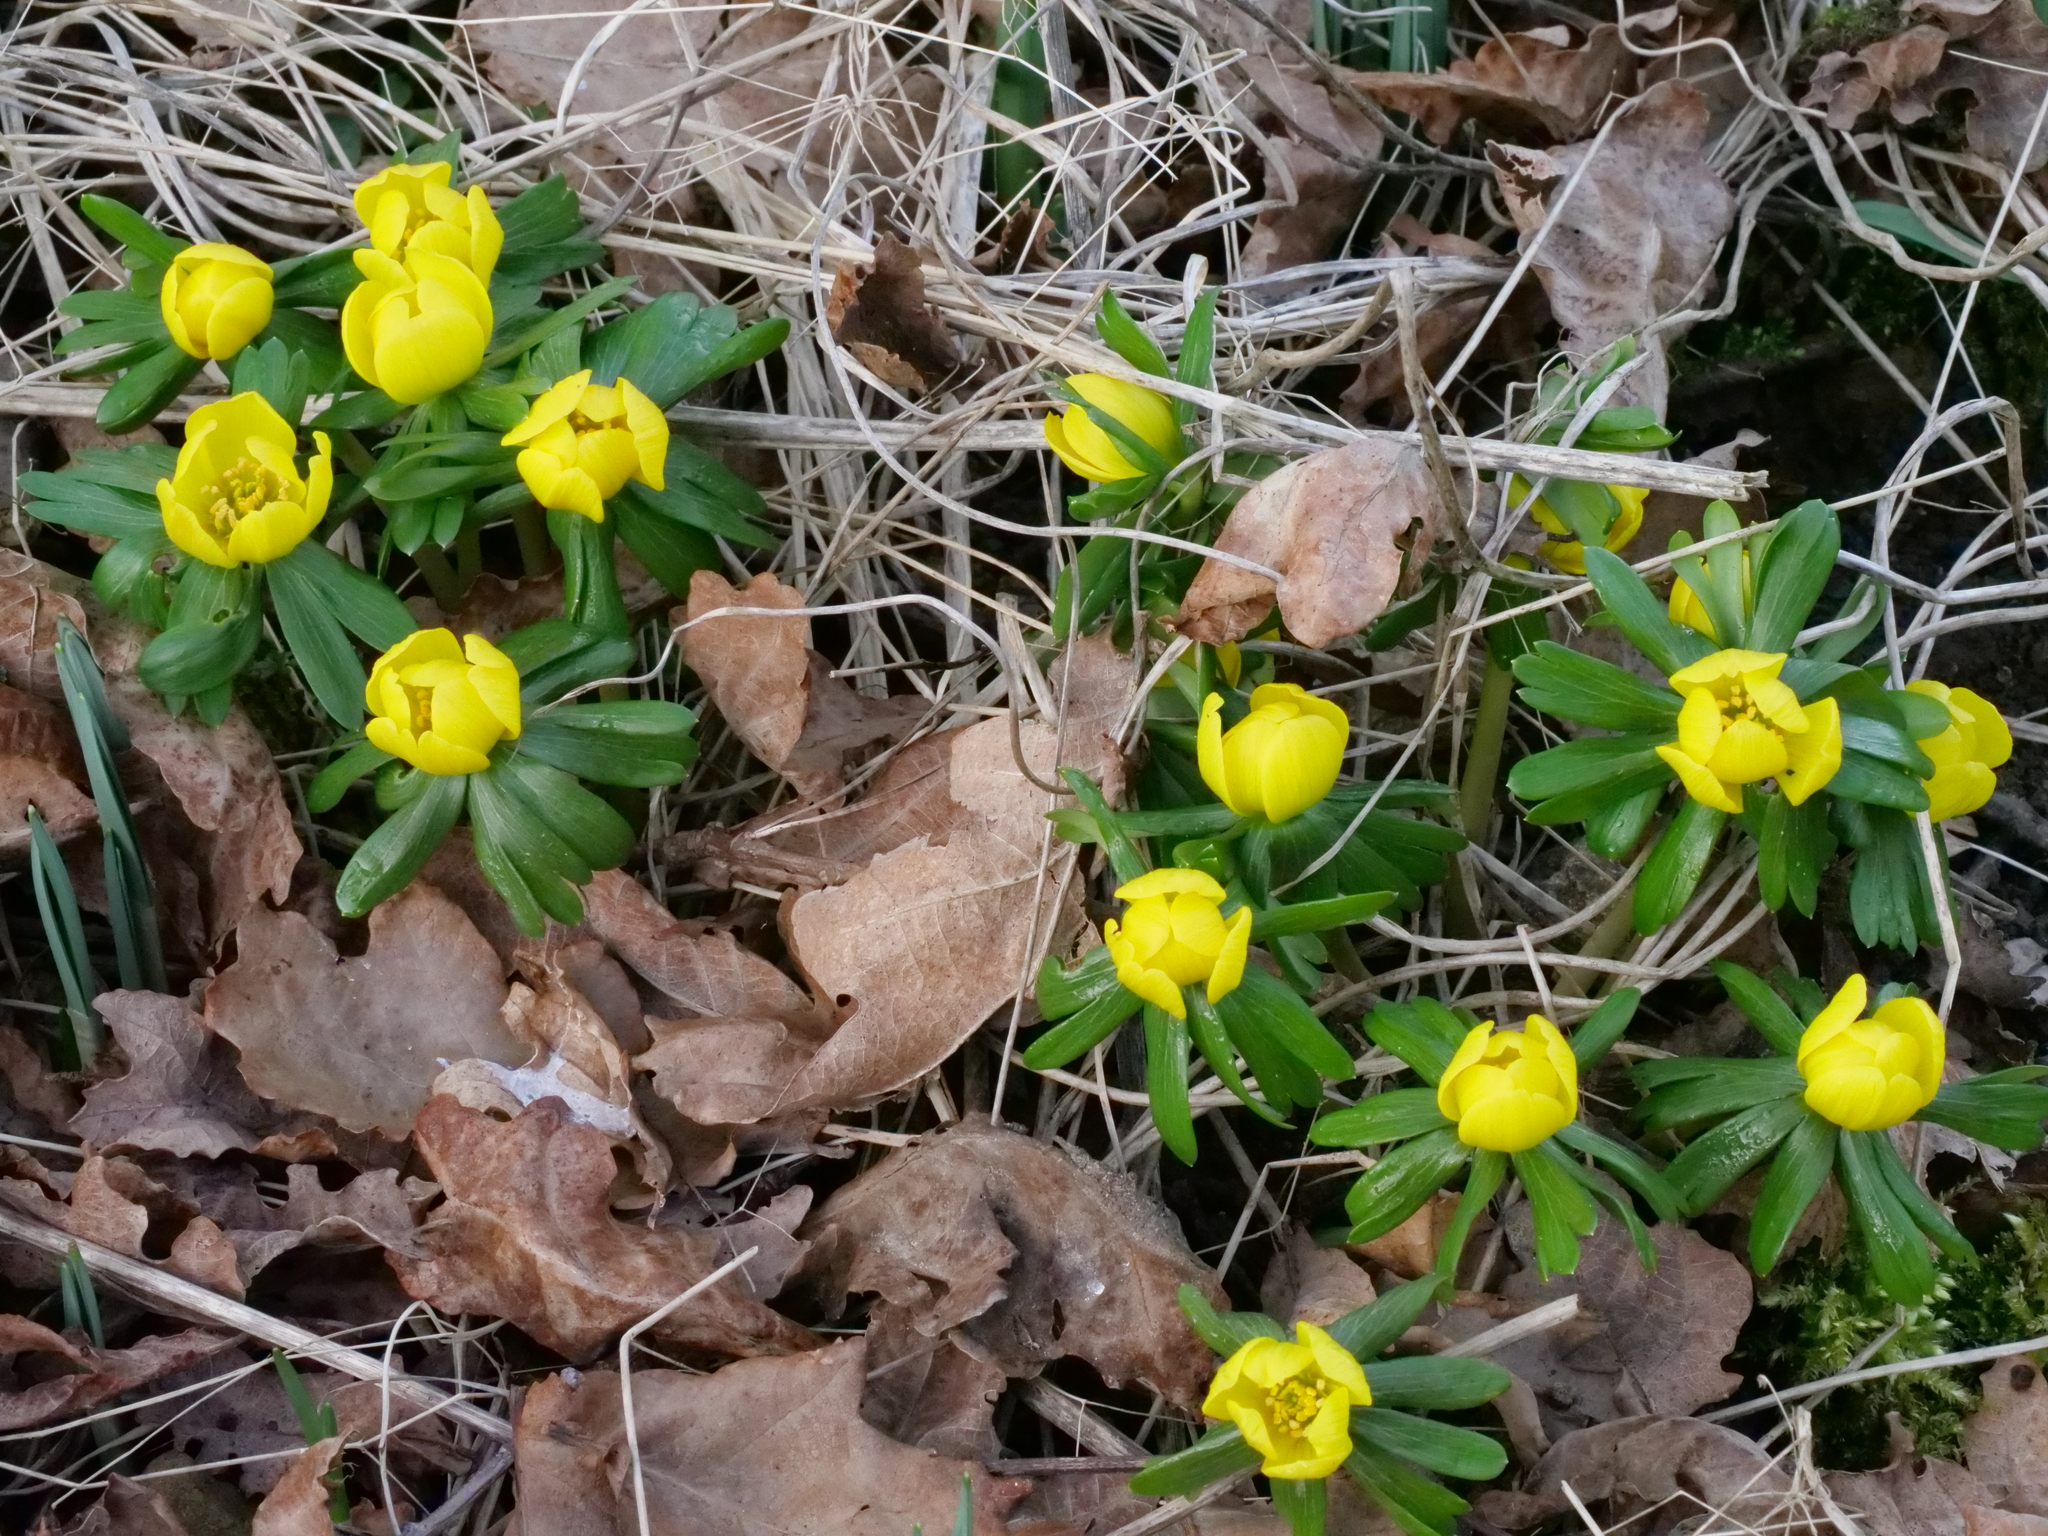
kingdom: Plantae
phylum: Tracheophyta
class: Magnoliopsida
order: Ranunculales
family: Ranunculaceae
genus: Eranthis
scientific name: Eranthis hyemalis
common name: Winter aconite
